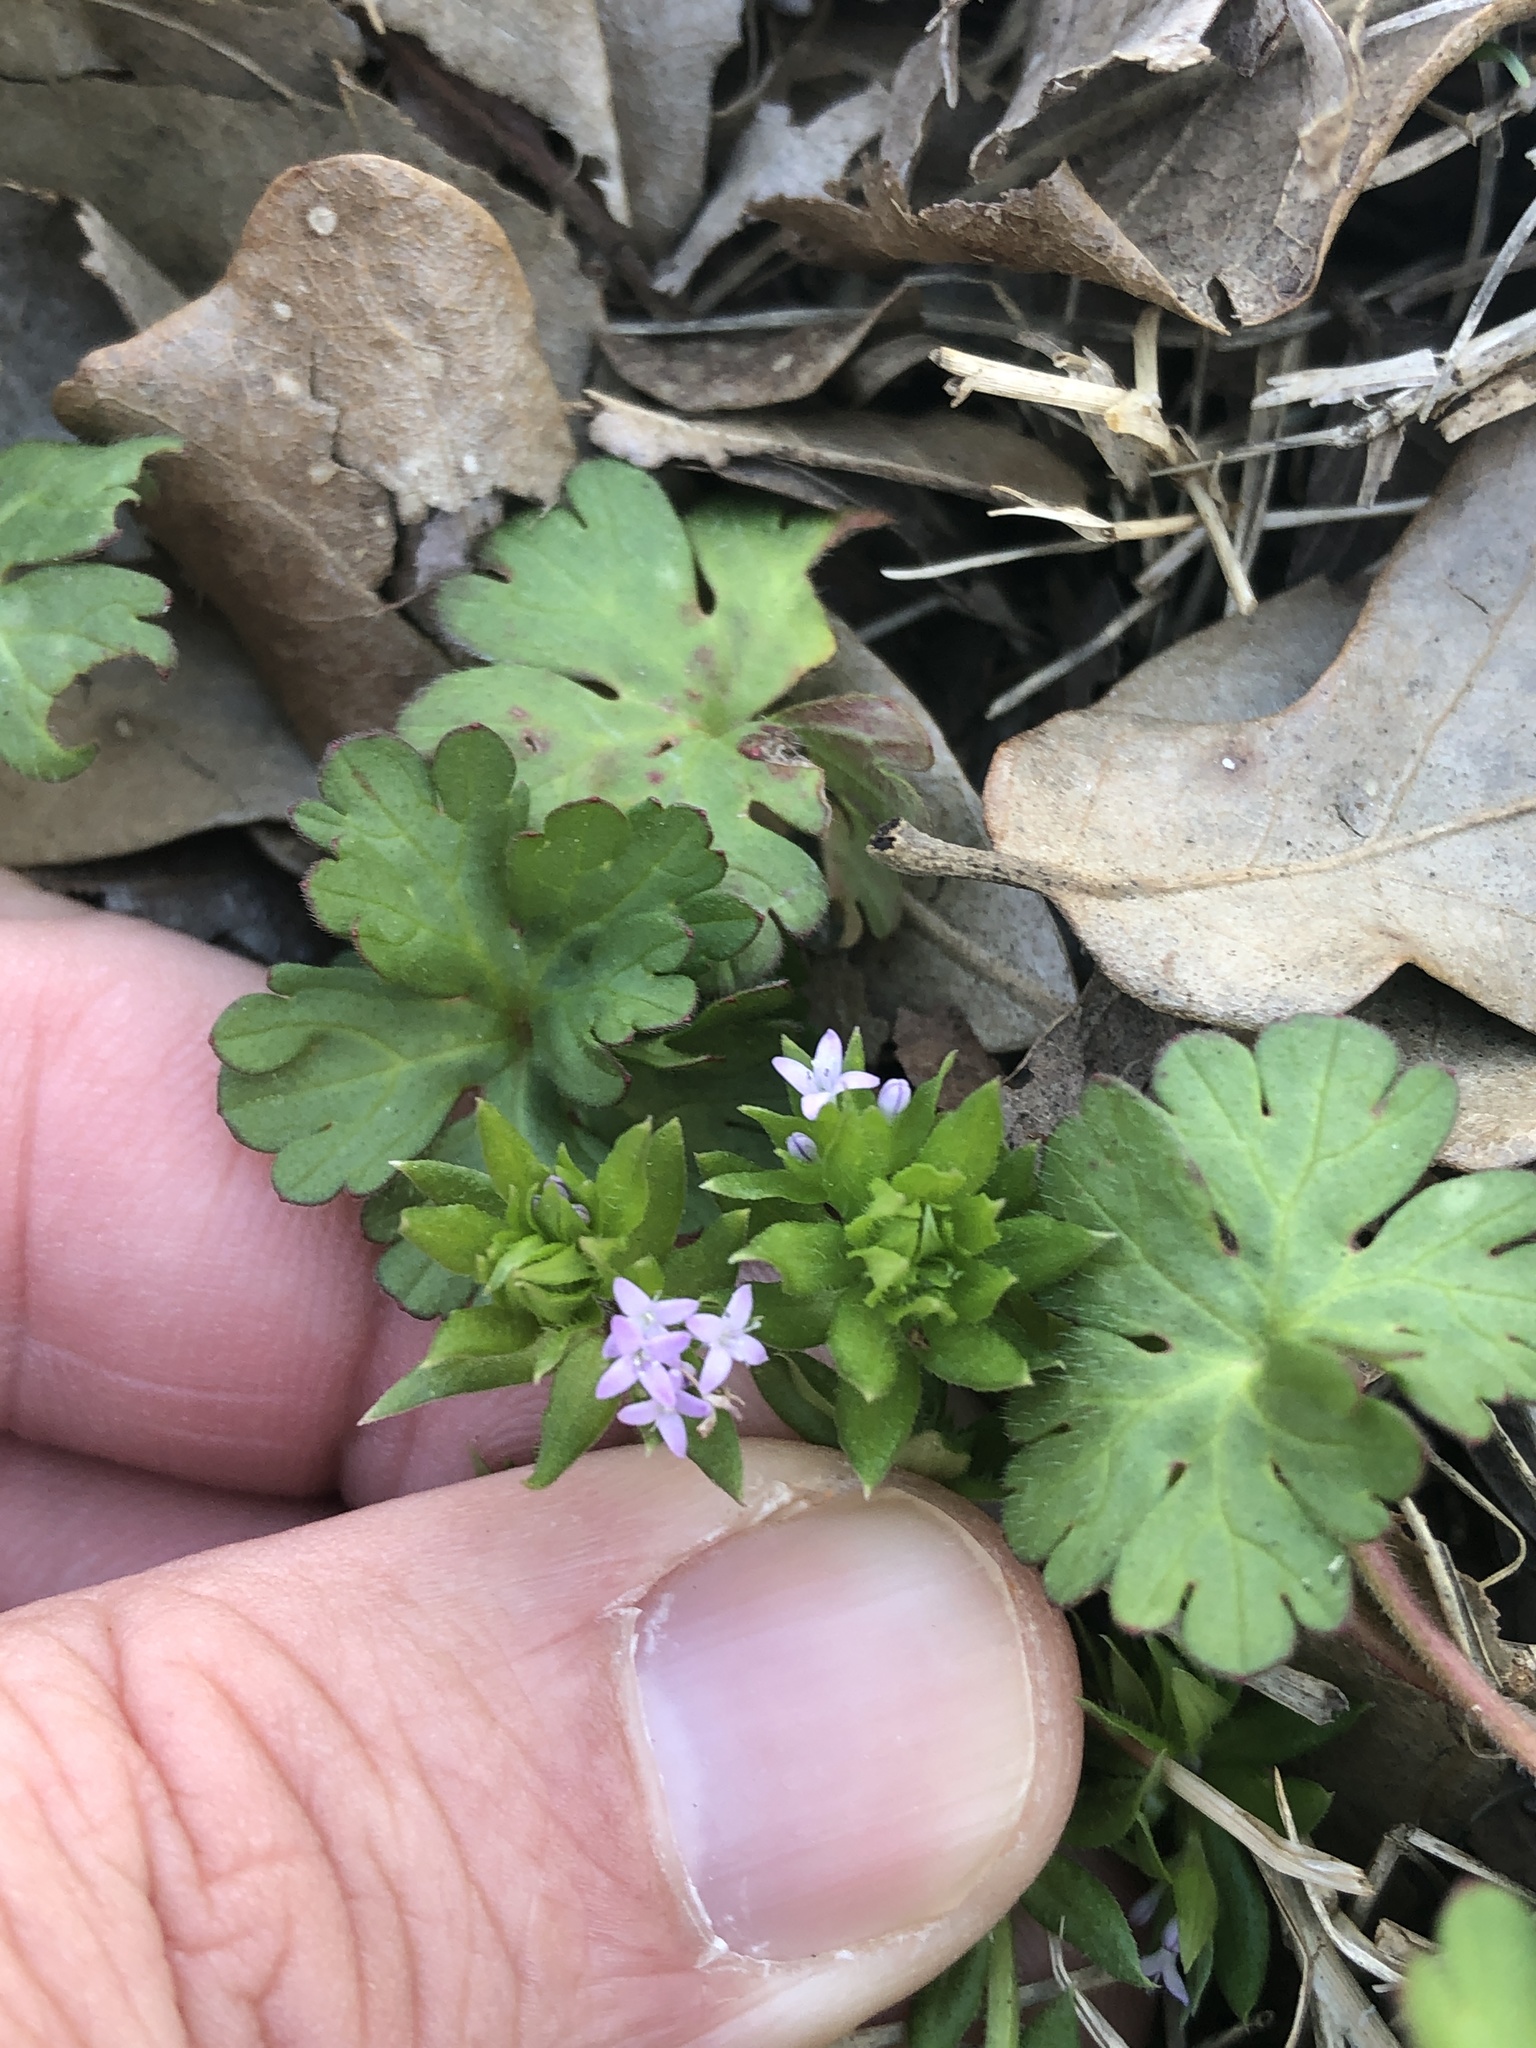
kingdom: Plantae
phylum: Tracheophyta
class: Magnoliopsida
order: Gentianales
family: Rubiaceae
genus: Sherardia
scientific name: Sherardia arvensis
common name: Field madder
